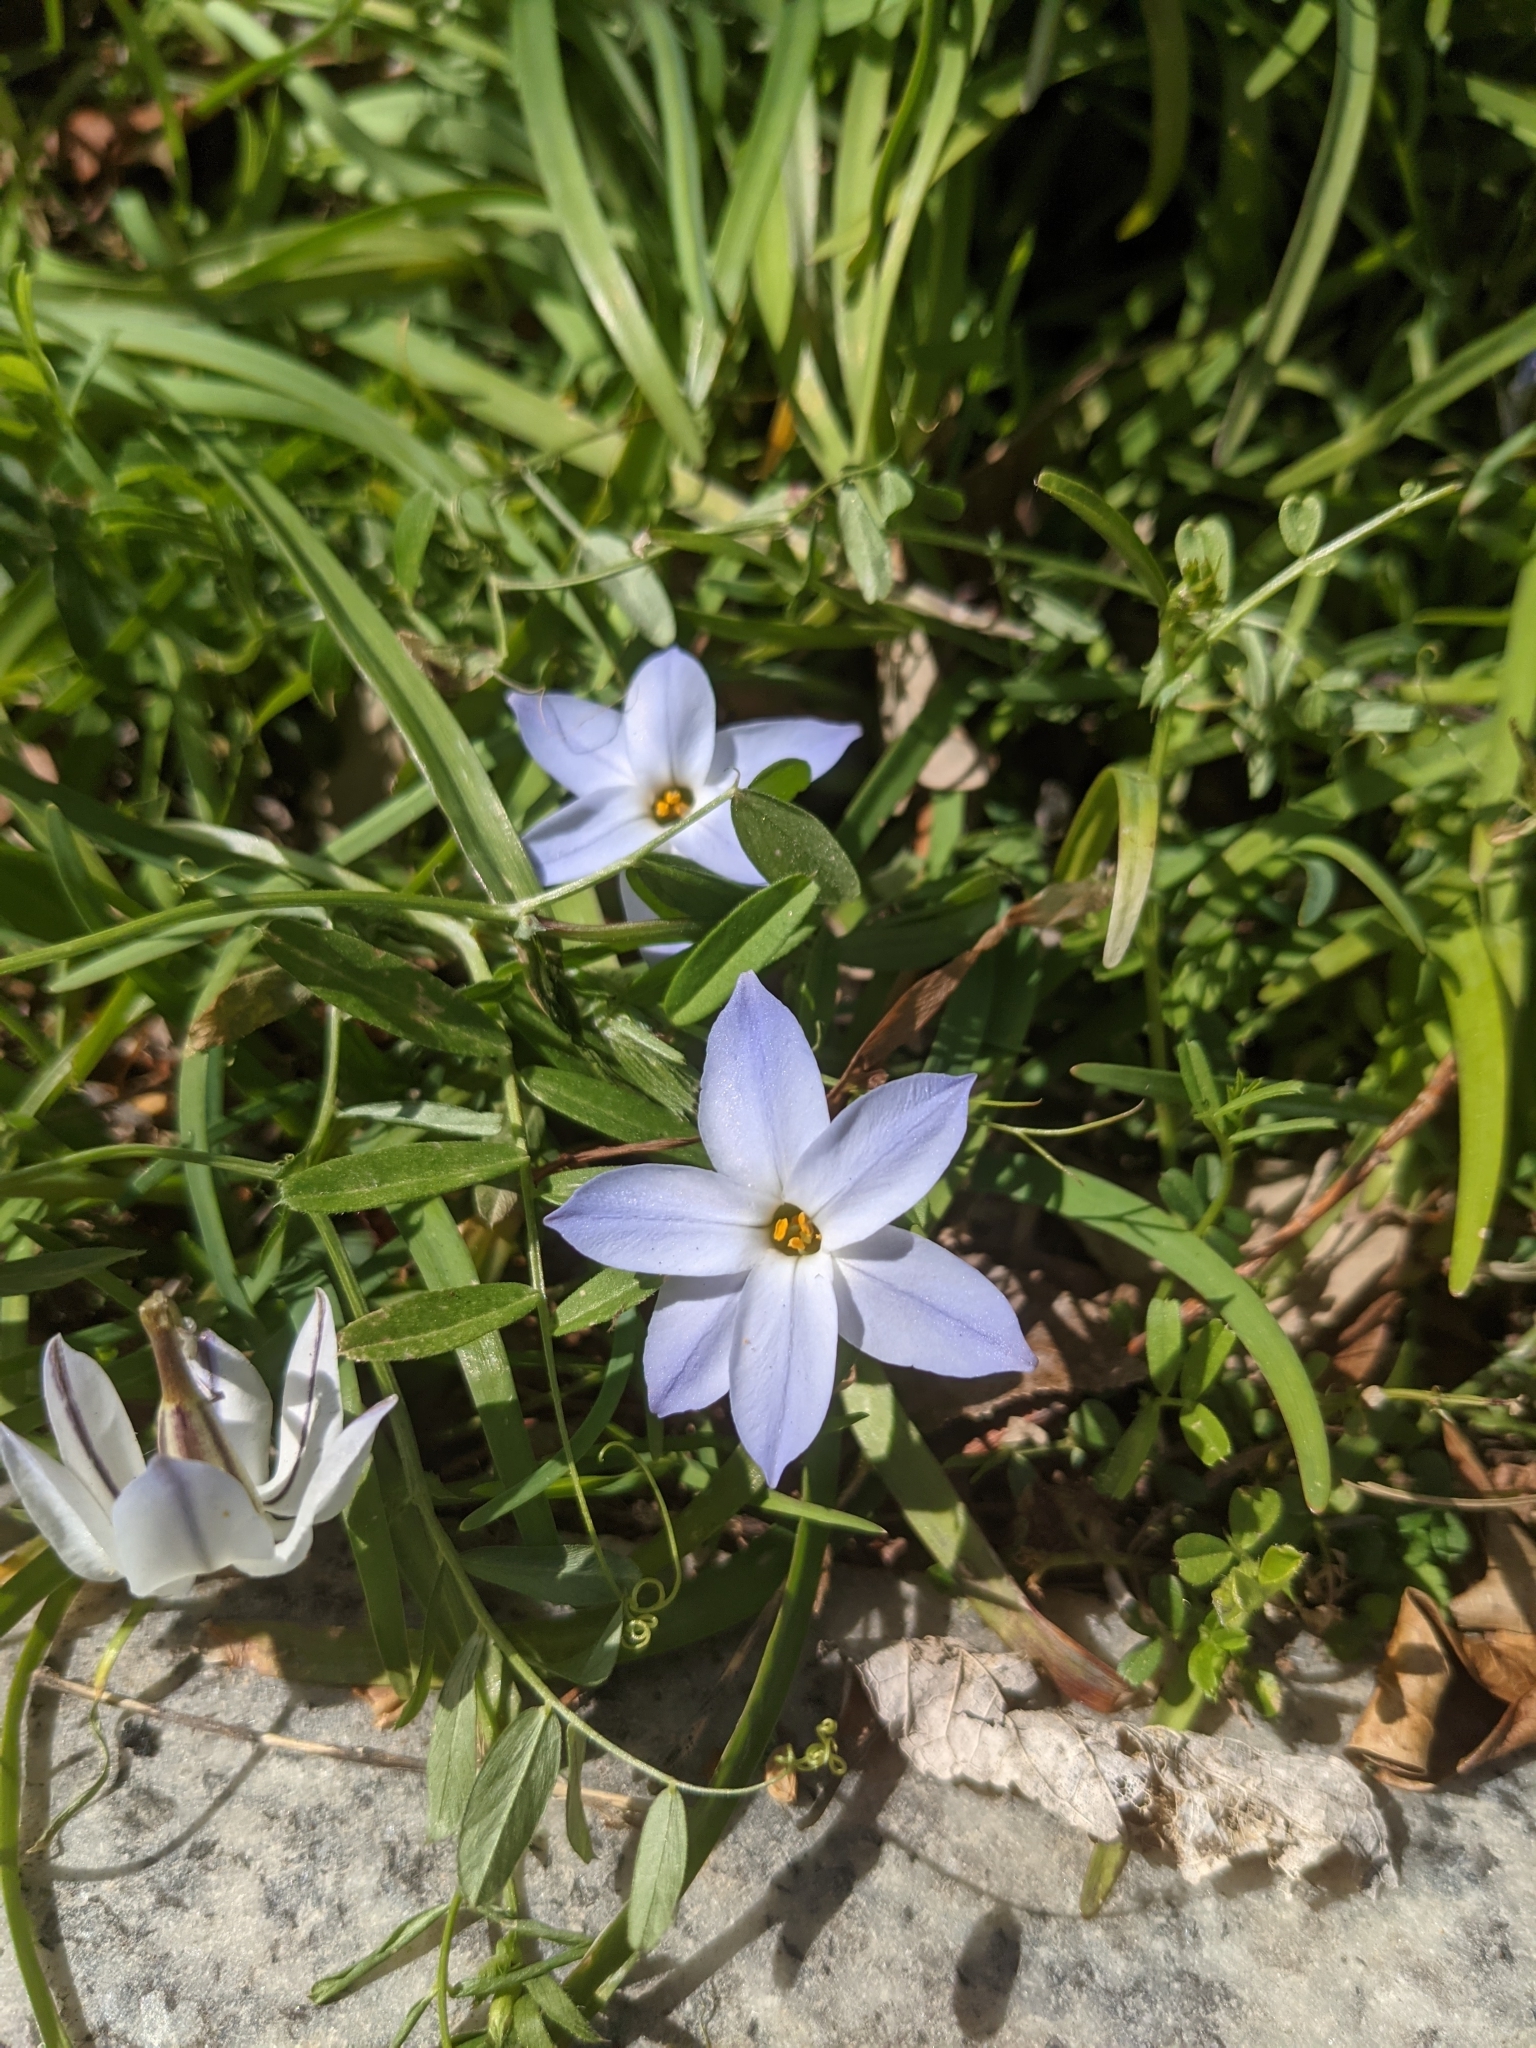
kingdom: Plantae
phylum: Tracheophyta
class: Liliopsida
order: Asparagales
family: Amaryllidaceae
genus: Ipheion
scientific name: Ipheion uniflorum
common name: Spring starflower
